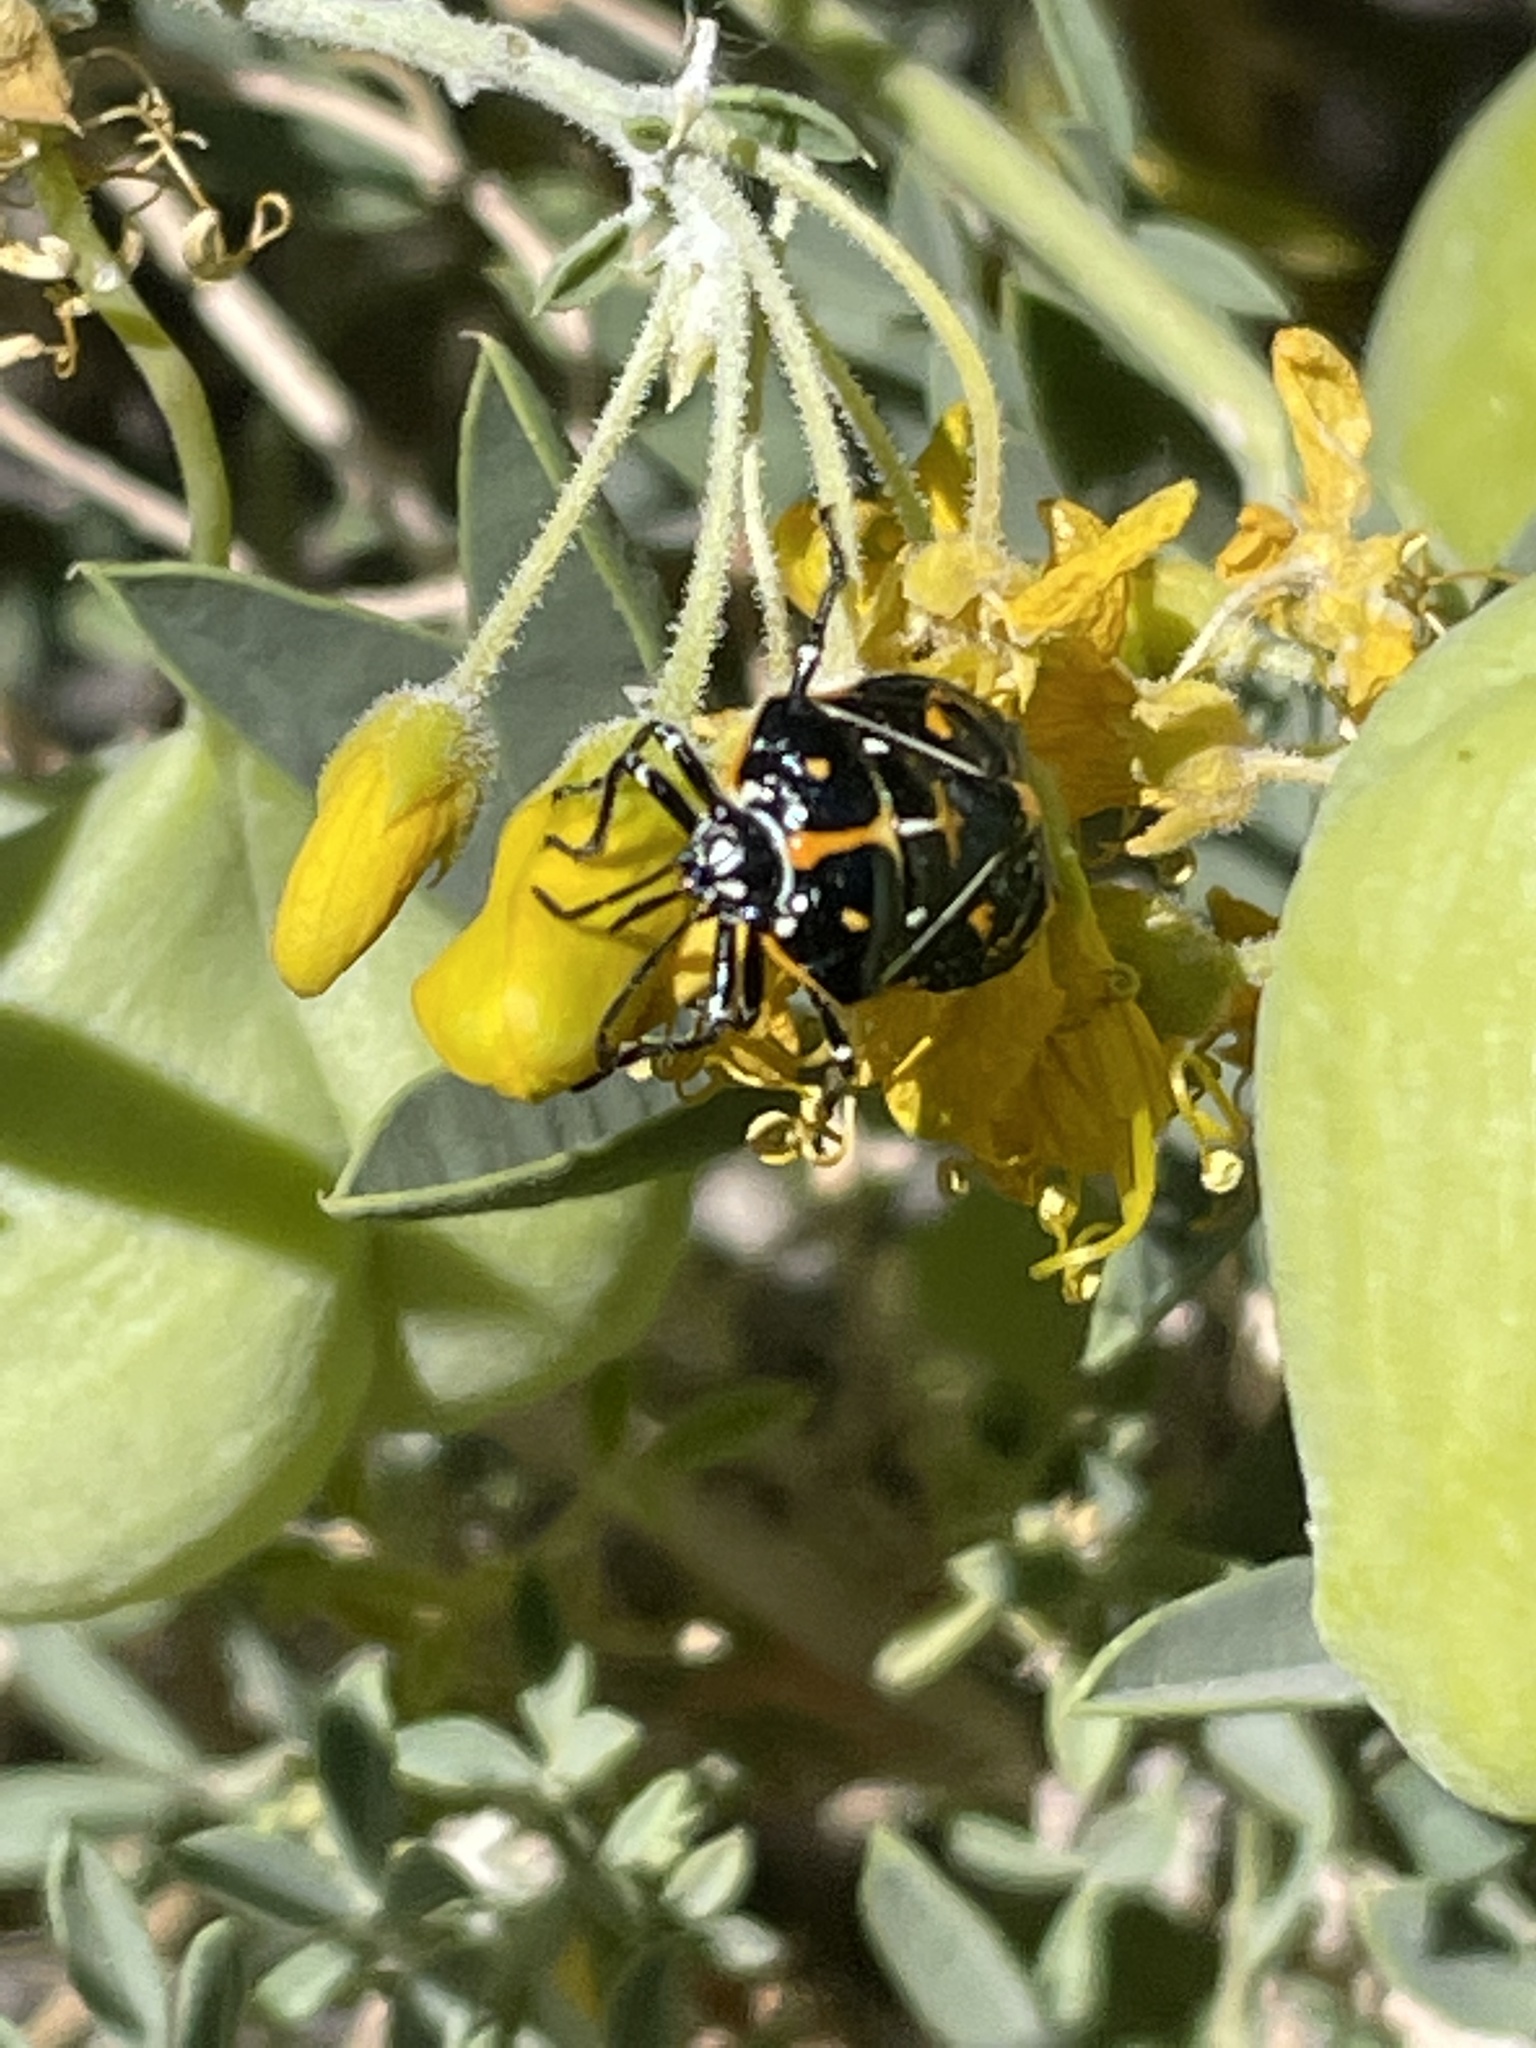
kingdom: Animalia
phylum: Arthropoda
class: Insecta
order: Hemiptera
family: Pentatomidae
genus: Murgantia
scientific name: Murgantia histrionica
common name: Harlequin bug
